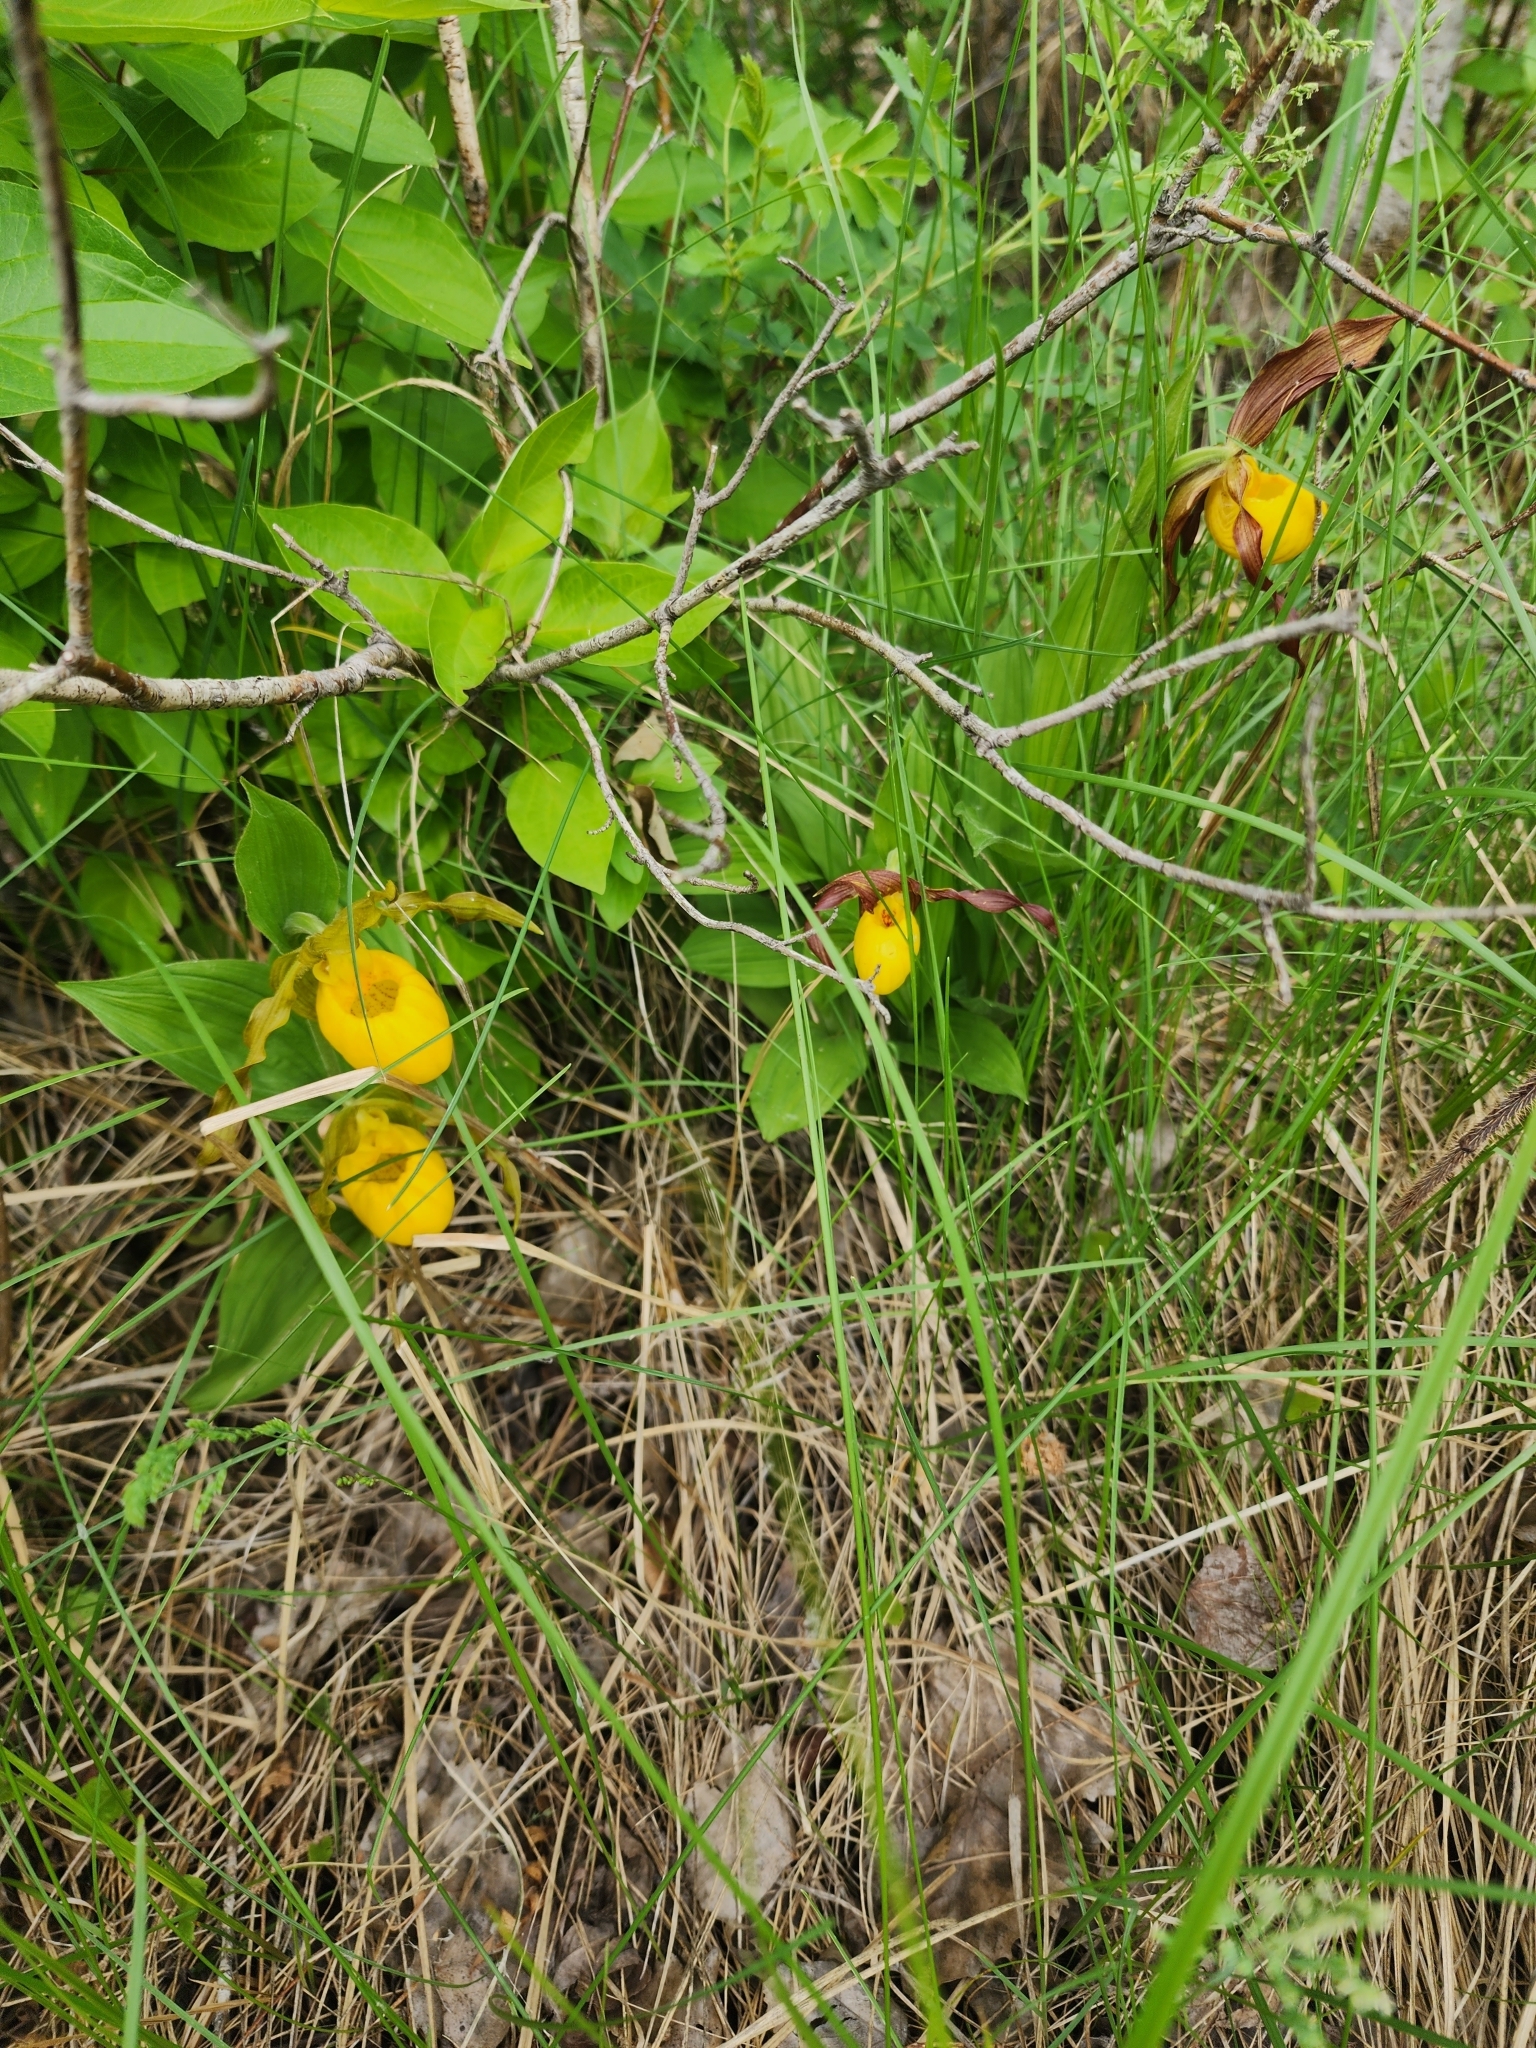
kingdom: Plantae
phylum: Tracheophyta
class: Liliopsida
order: Asparagales
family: Orchidaceae
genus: Cypripedium
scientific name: Cypripedium parviflorum
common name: American yellow lady's-slipper
